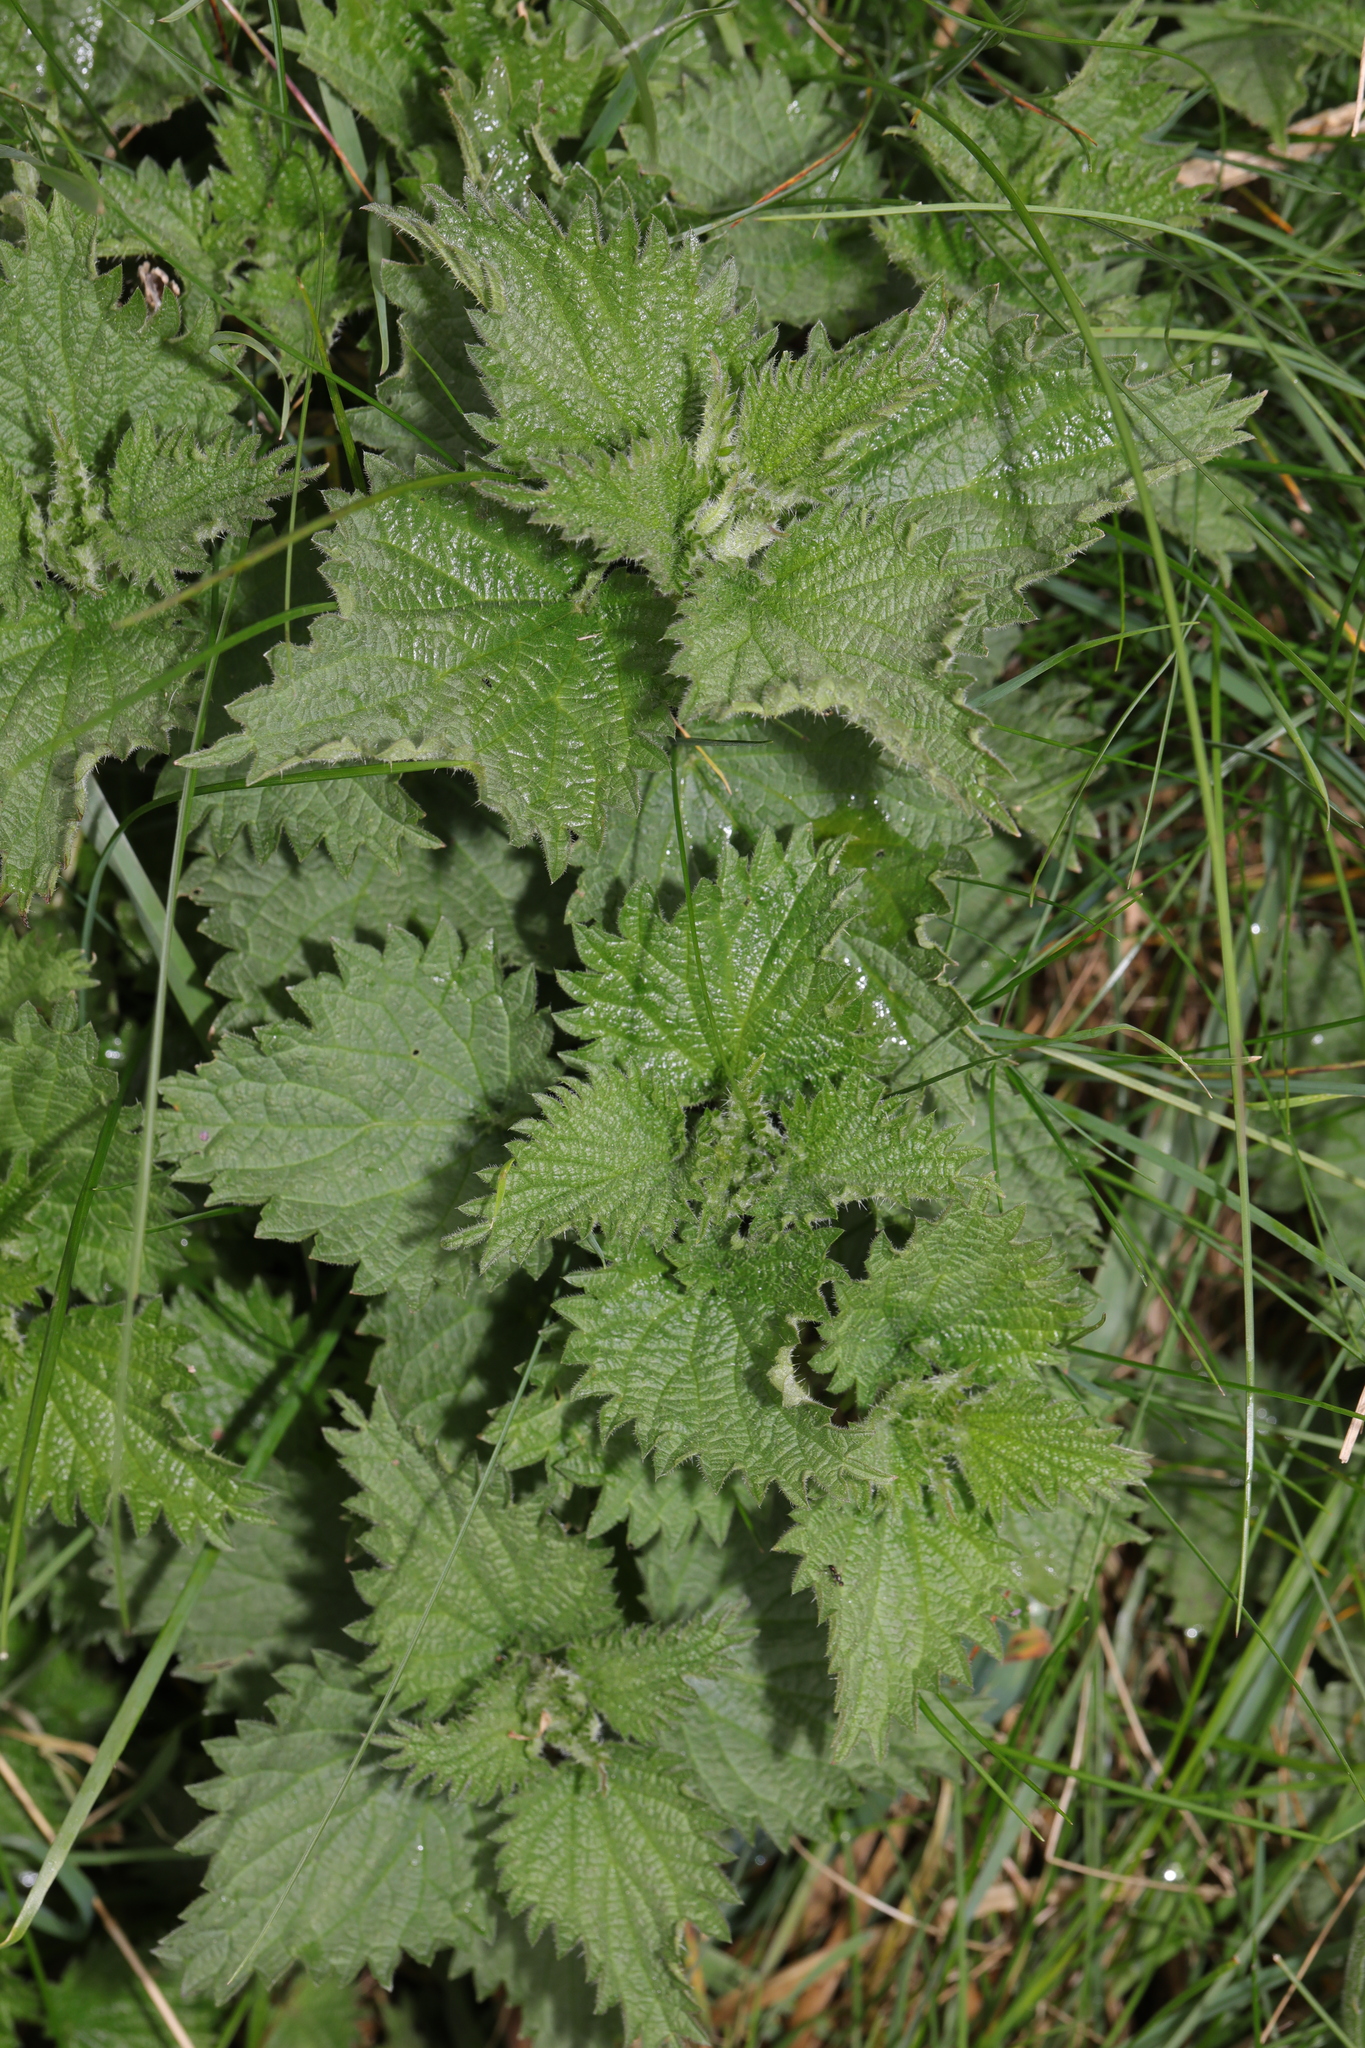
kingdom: Plantae
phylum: Tracheophyta
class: Magnoliopsida
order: Rosales
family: Urticaceae
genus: Urtica
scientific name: Urtica dioica
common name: Common nettle
